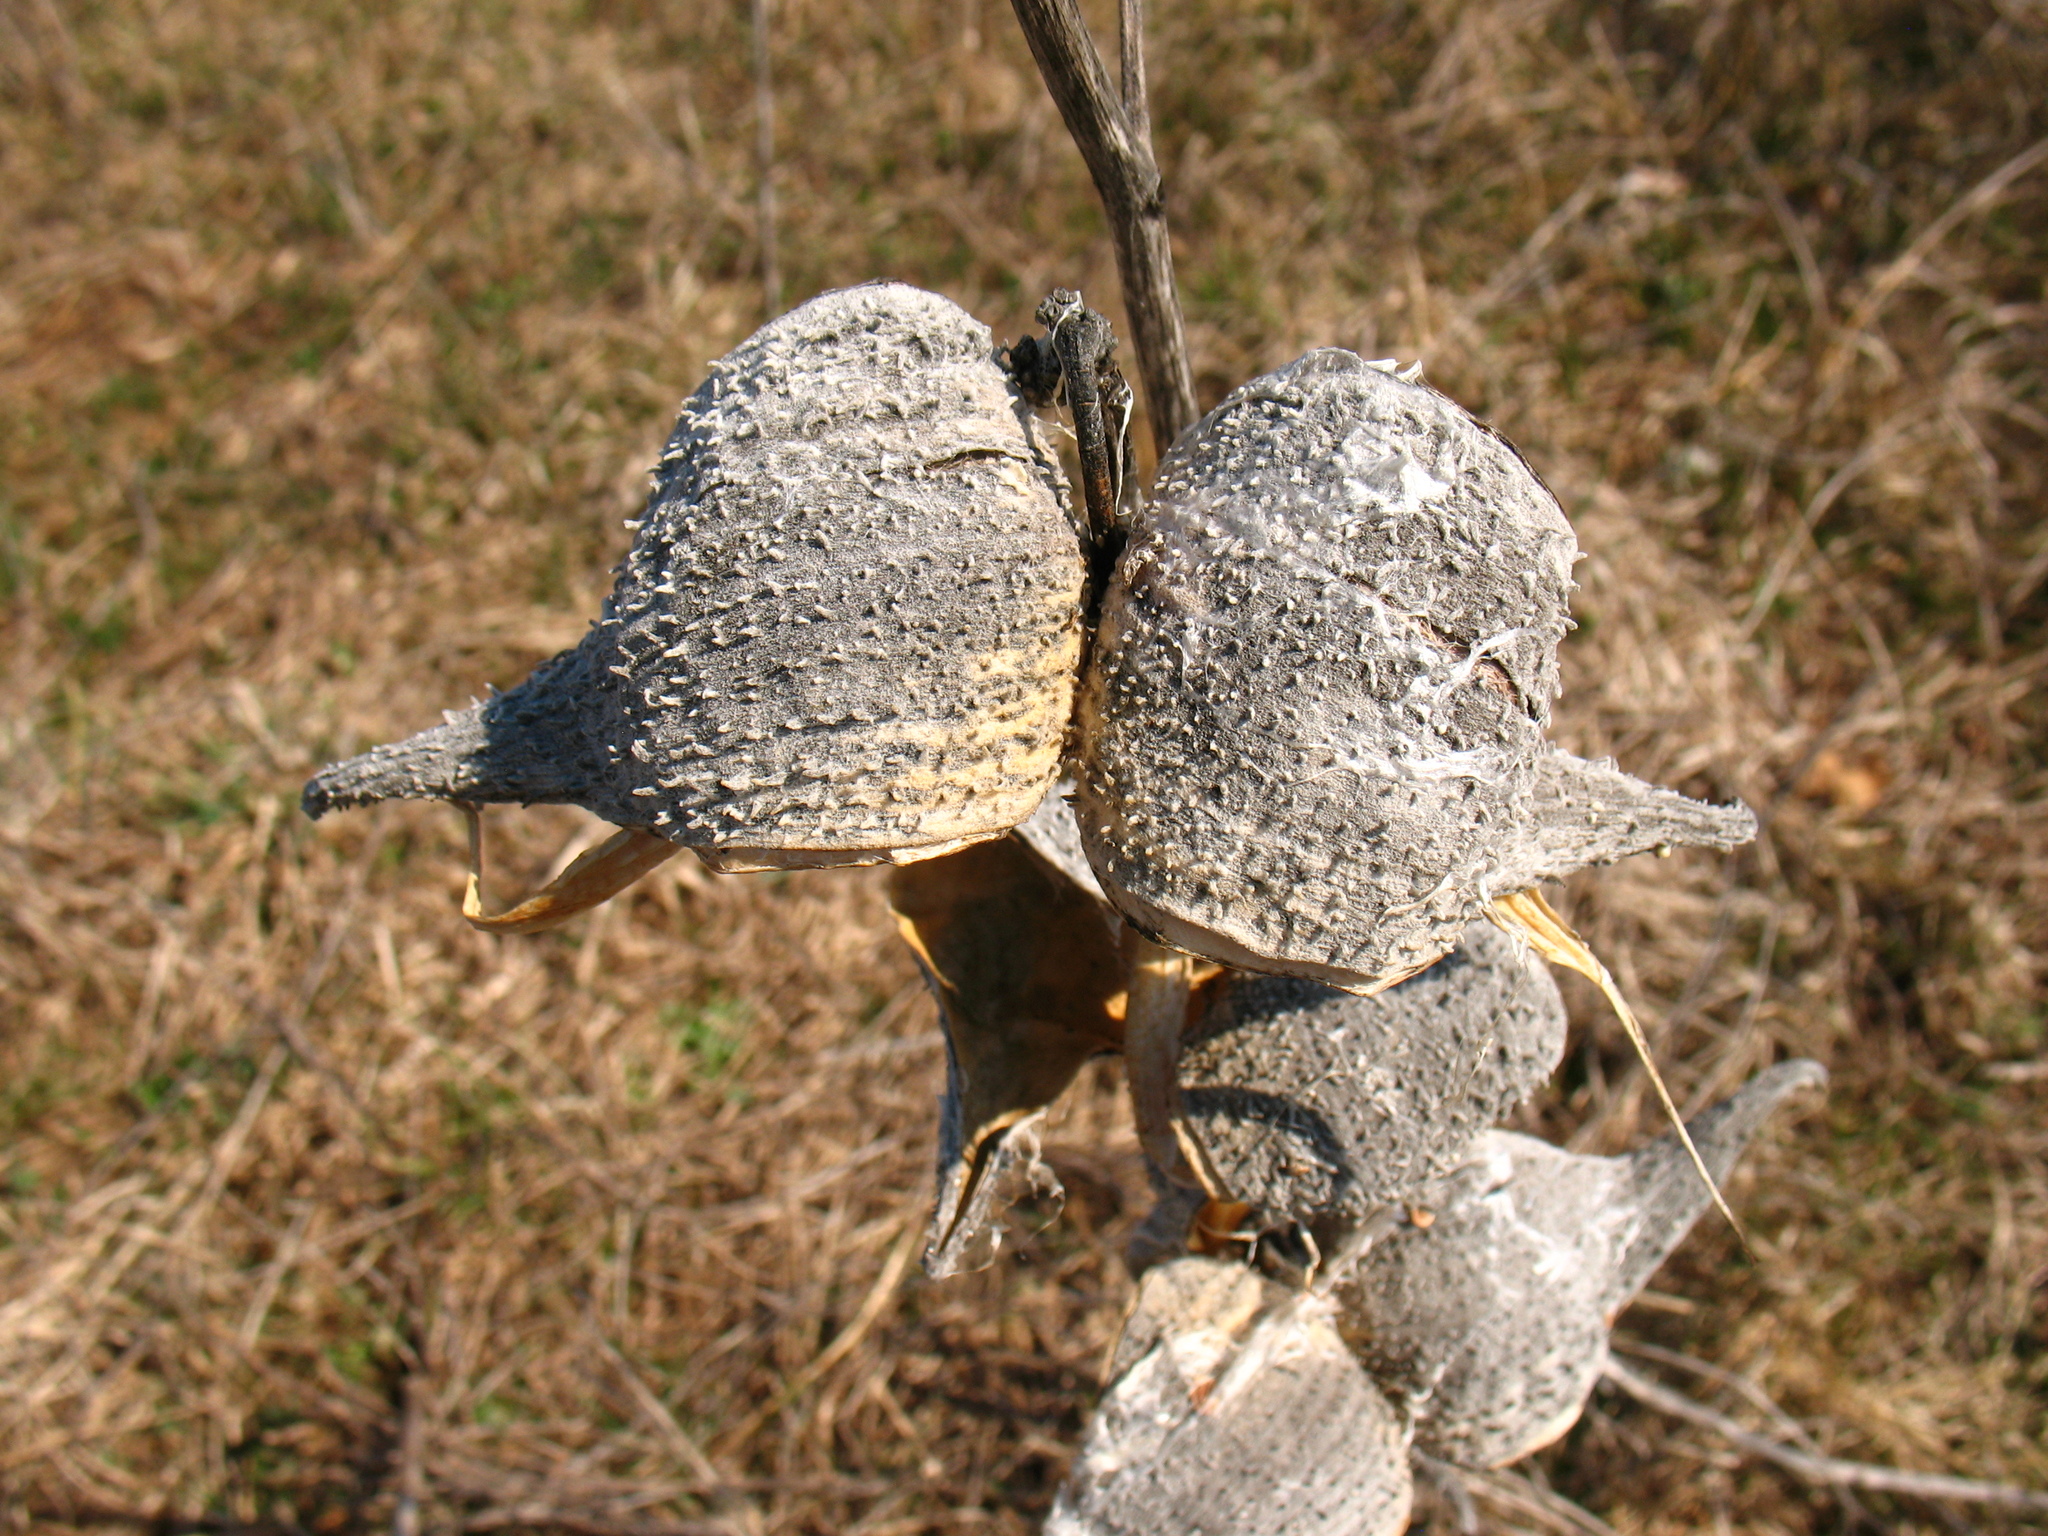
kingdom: Plantae
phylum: Tracheophyta
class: Magnoliopsida
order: Gentianales
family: Apocynaceae
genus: Asclepias
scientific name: Asclepias syriaca
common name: Common milkweed
